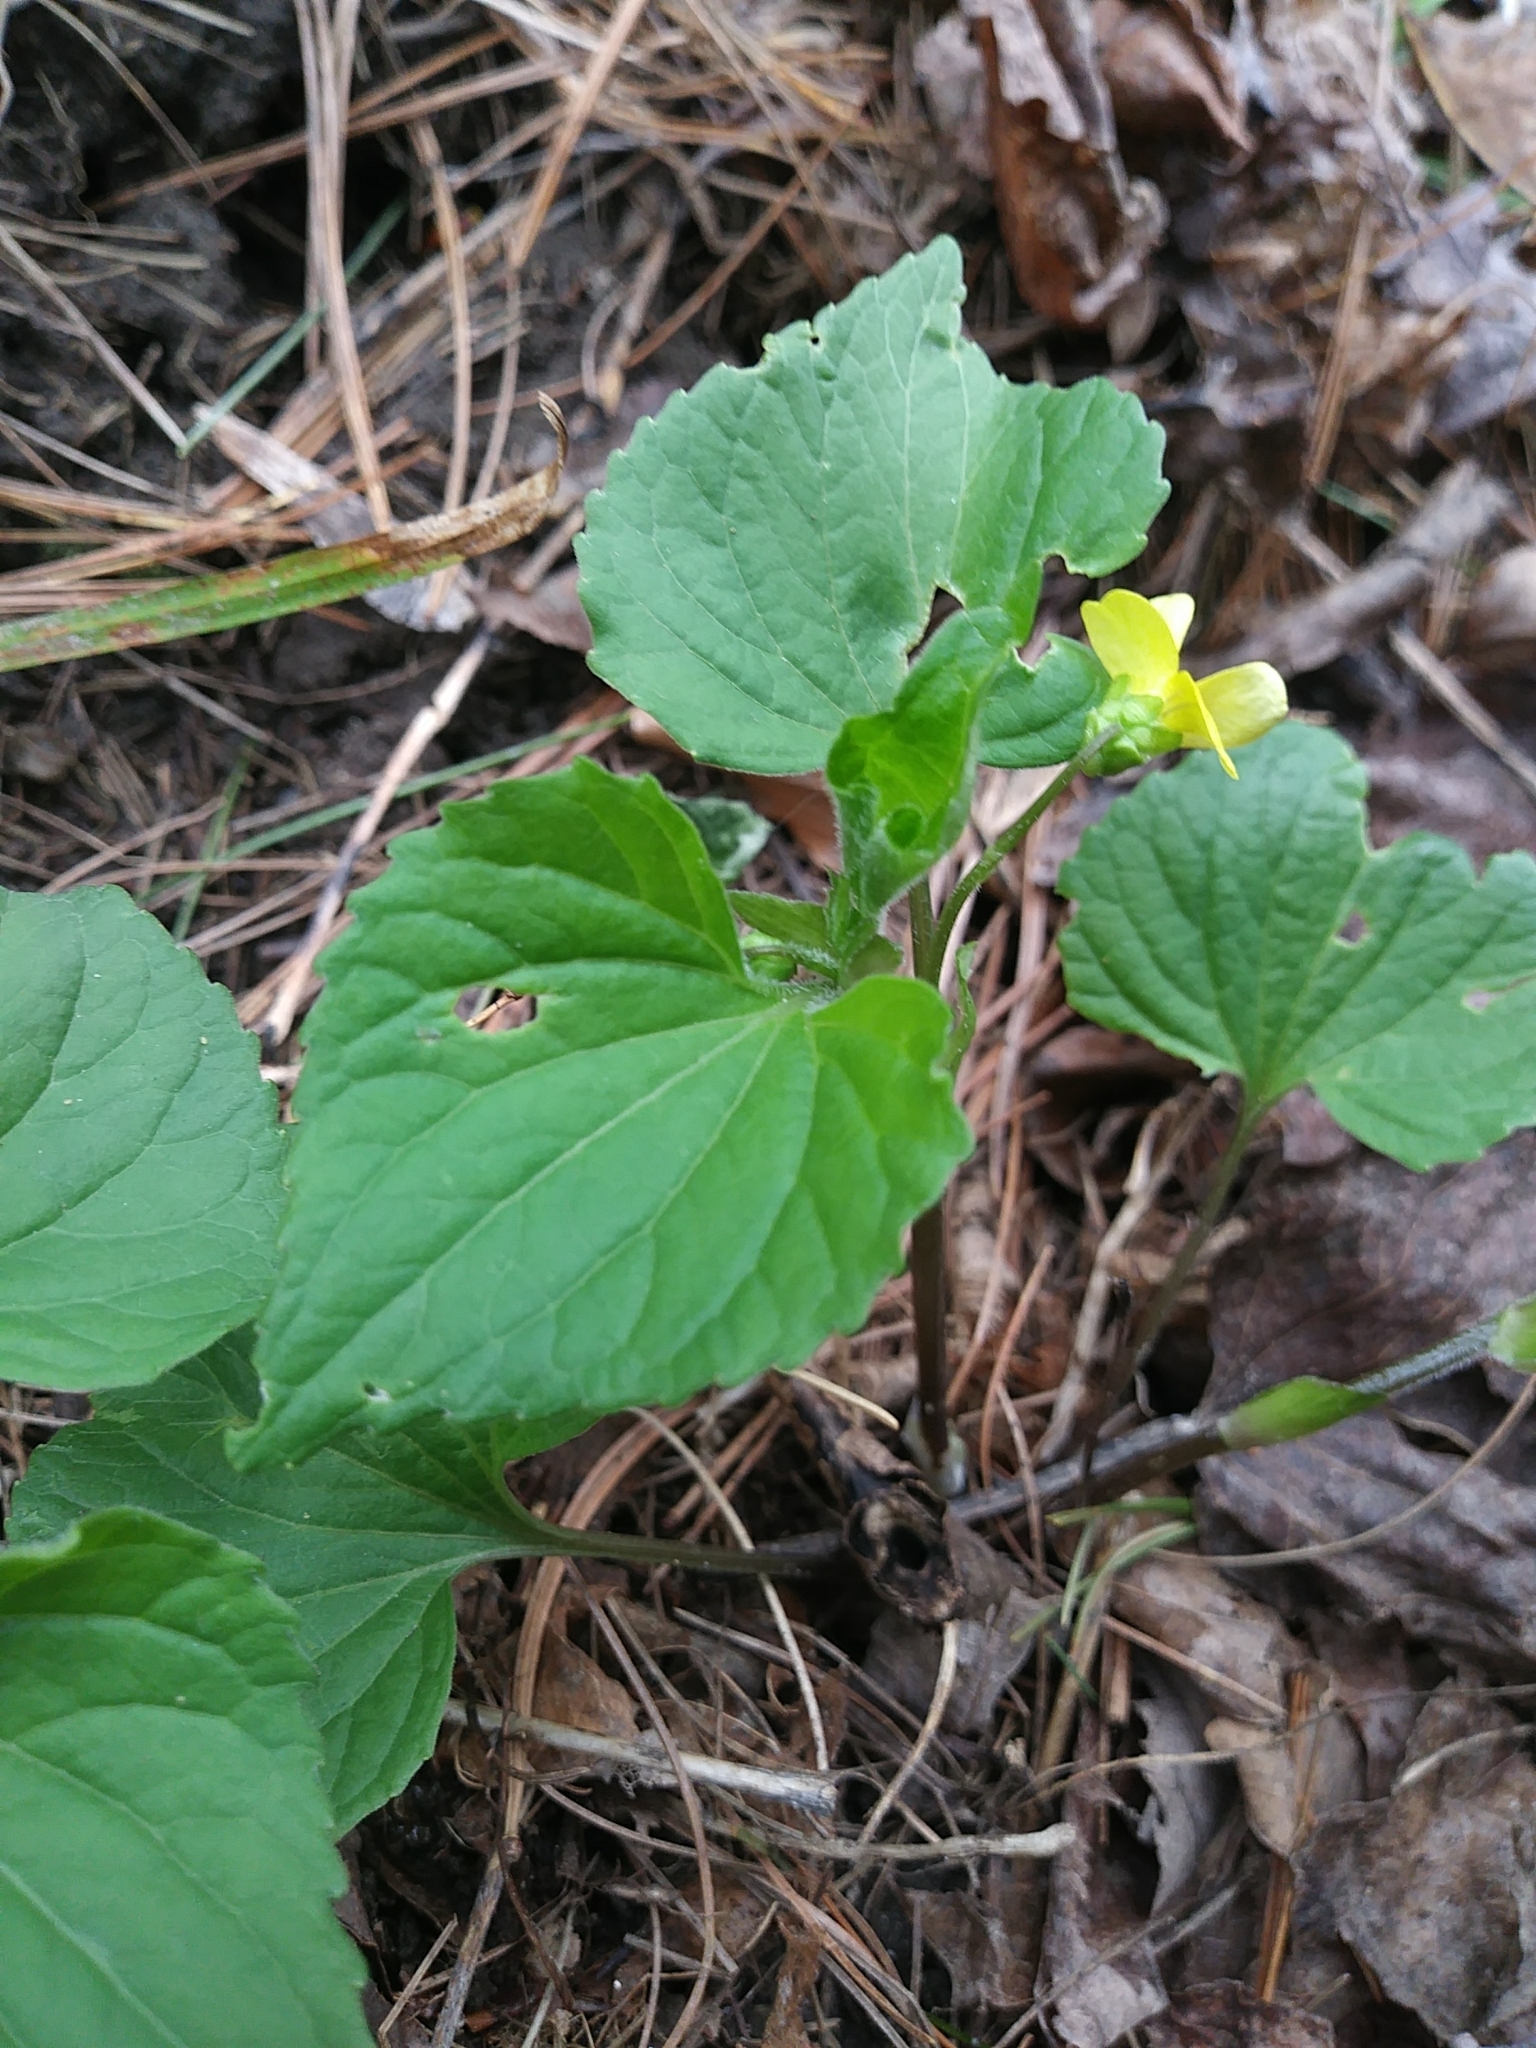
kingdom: Plantae
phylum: Tracheophyta
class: Magnoliopsida
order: Malpighiales
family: Violaceae
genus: Viola
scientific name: Viola eriocarpa
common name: Smooth yellow violet
